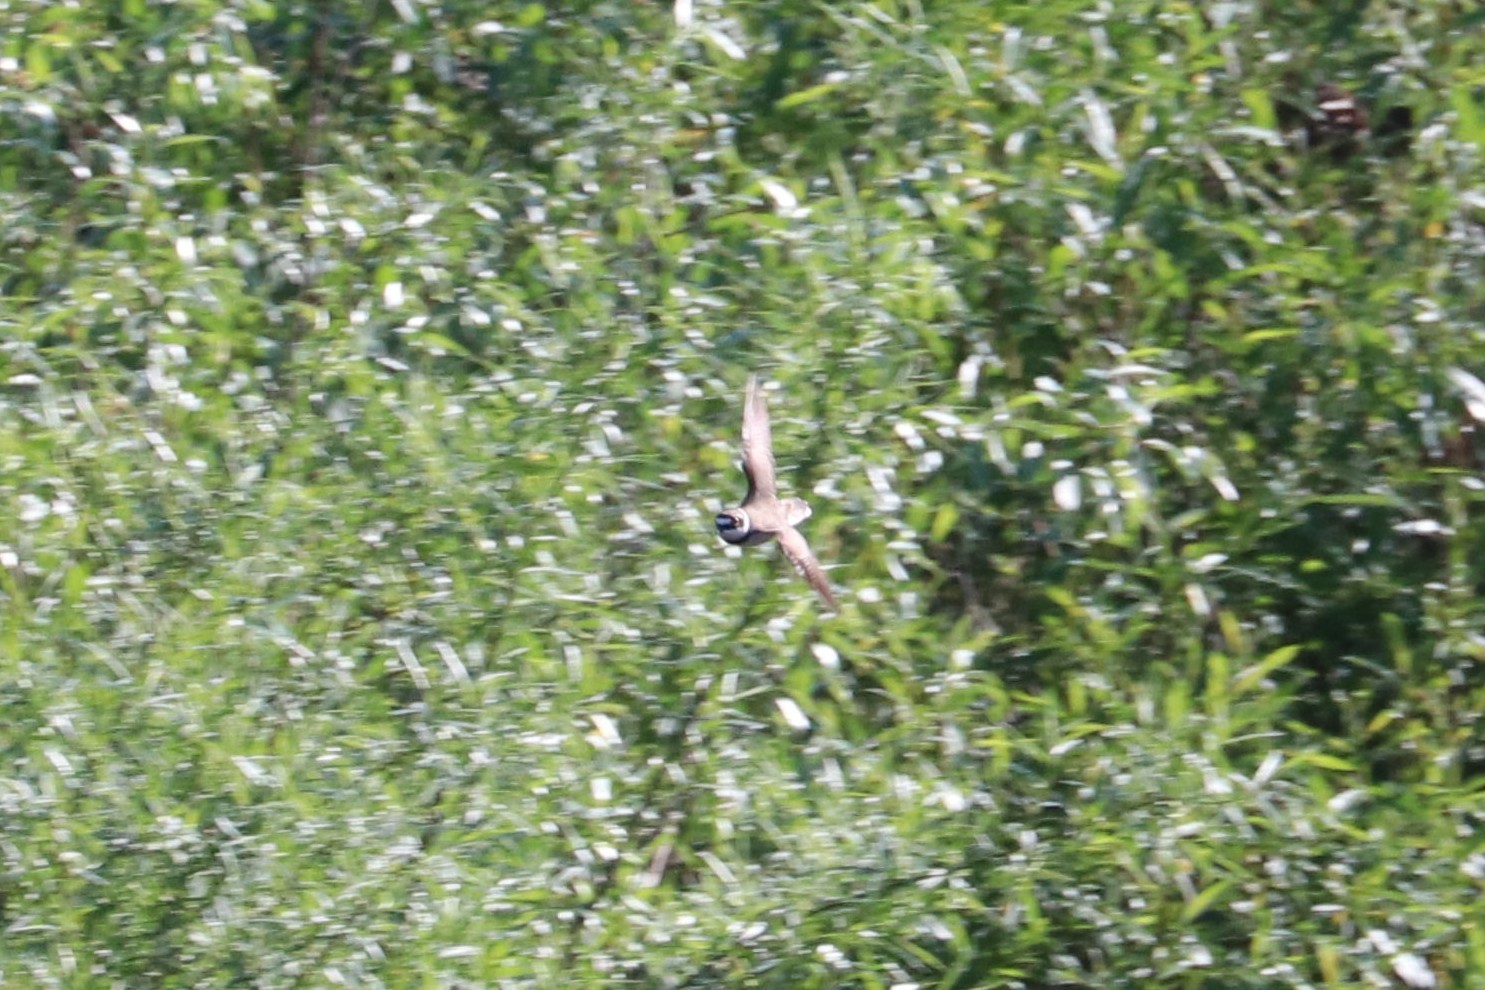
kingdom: Animalia
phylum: Chordata
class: Aves
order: Charadriiformes
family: Charadriidae
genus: Charadrius
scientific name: Charadrius dubius
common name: Little ringed plover
